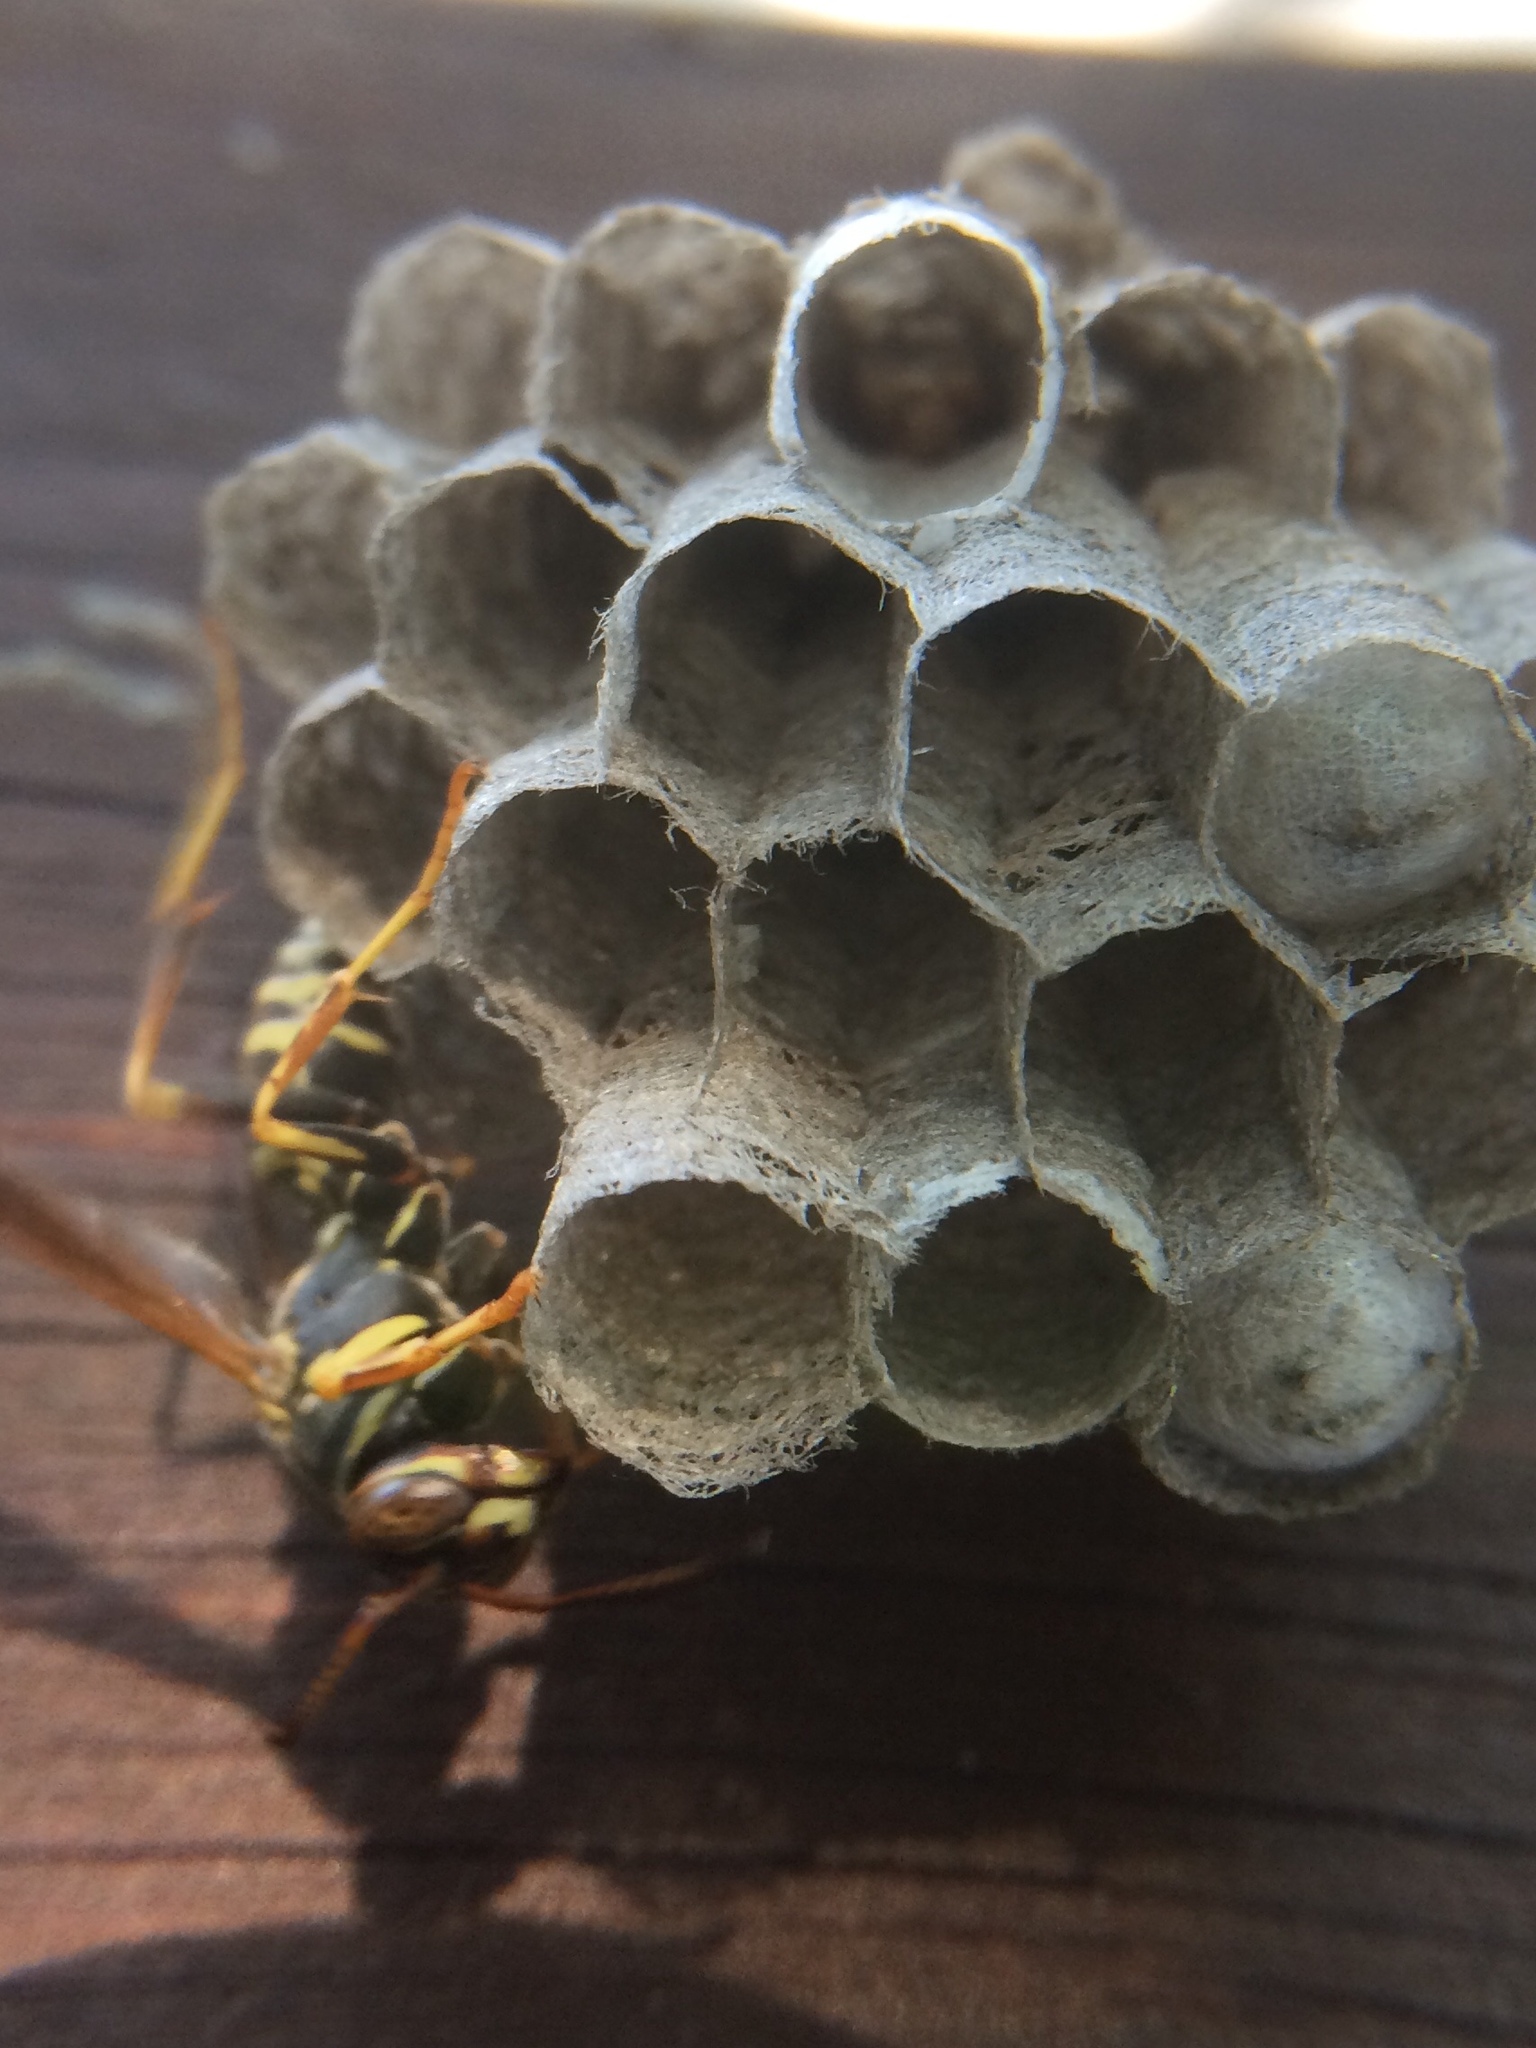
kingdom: Animalia
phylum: Arthropoda
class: Insecta
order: Hymenoptera
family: Eumenidae
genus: Polistes
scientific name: Polistes fuscatus
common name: Dark paper wasp
